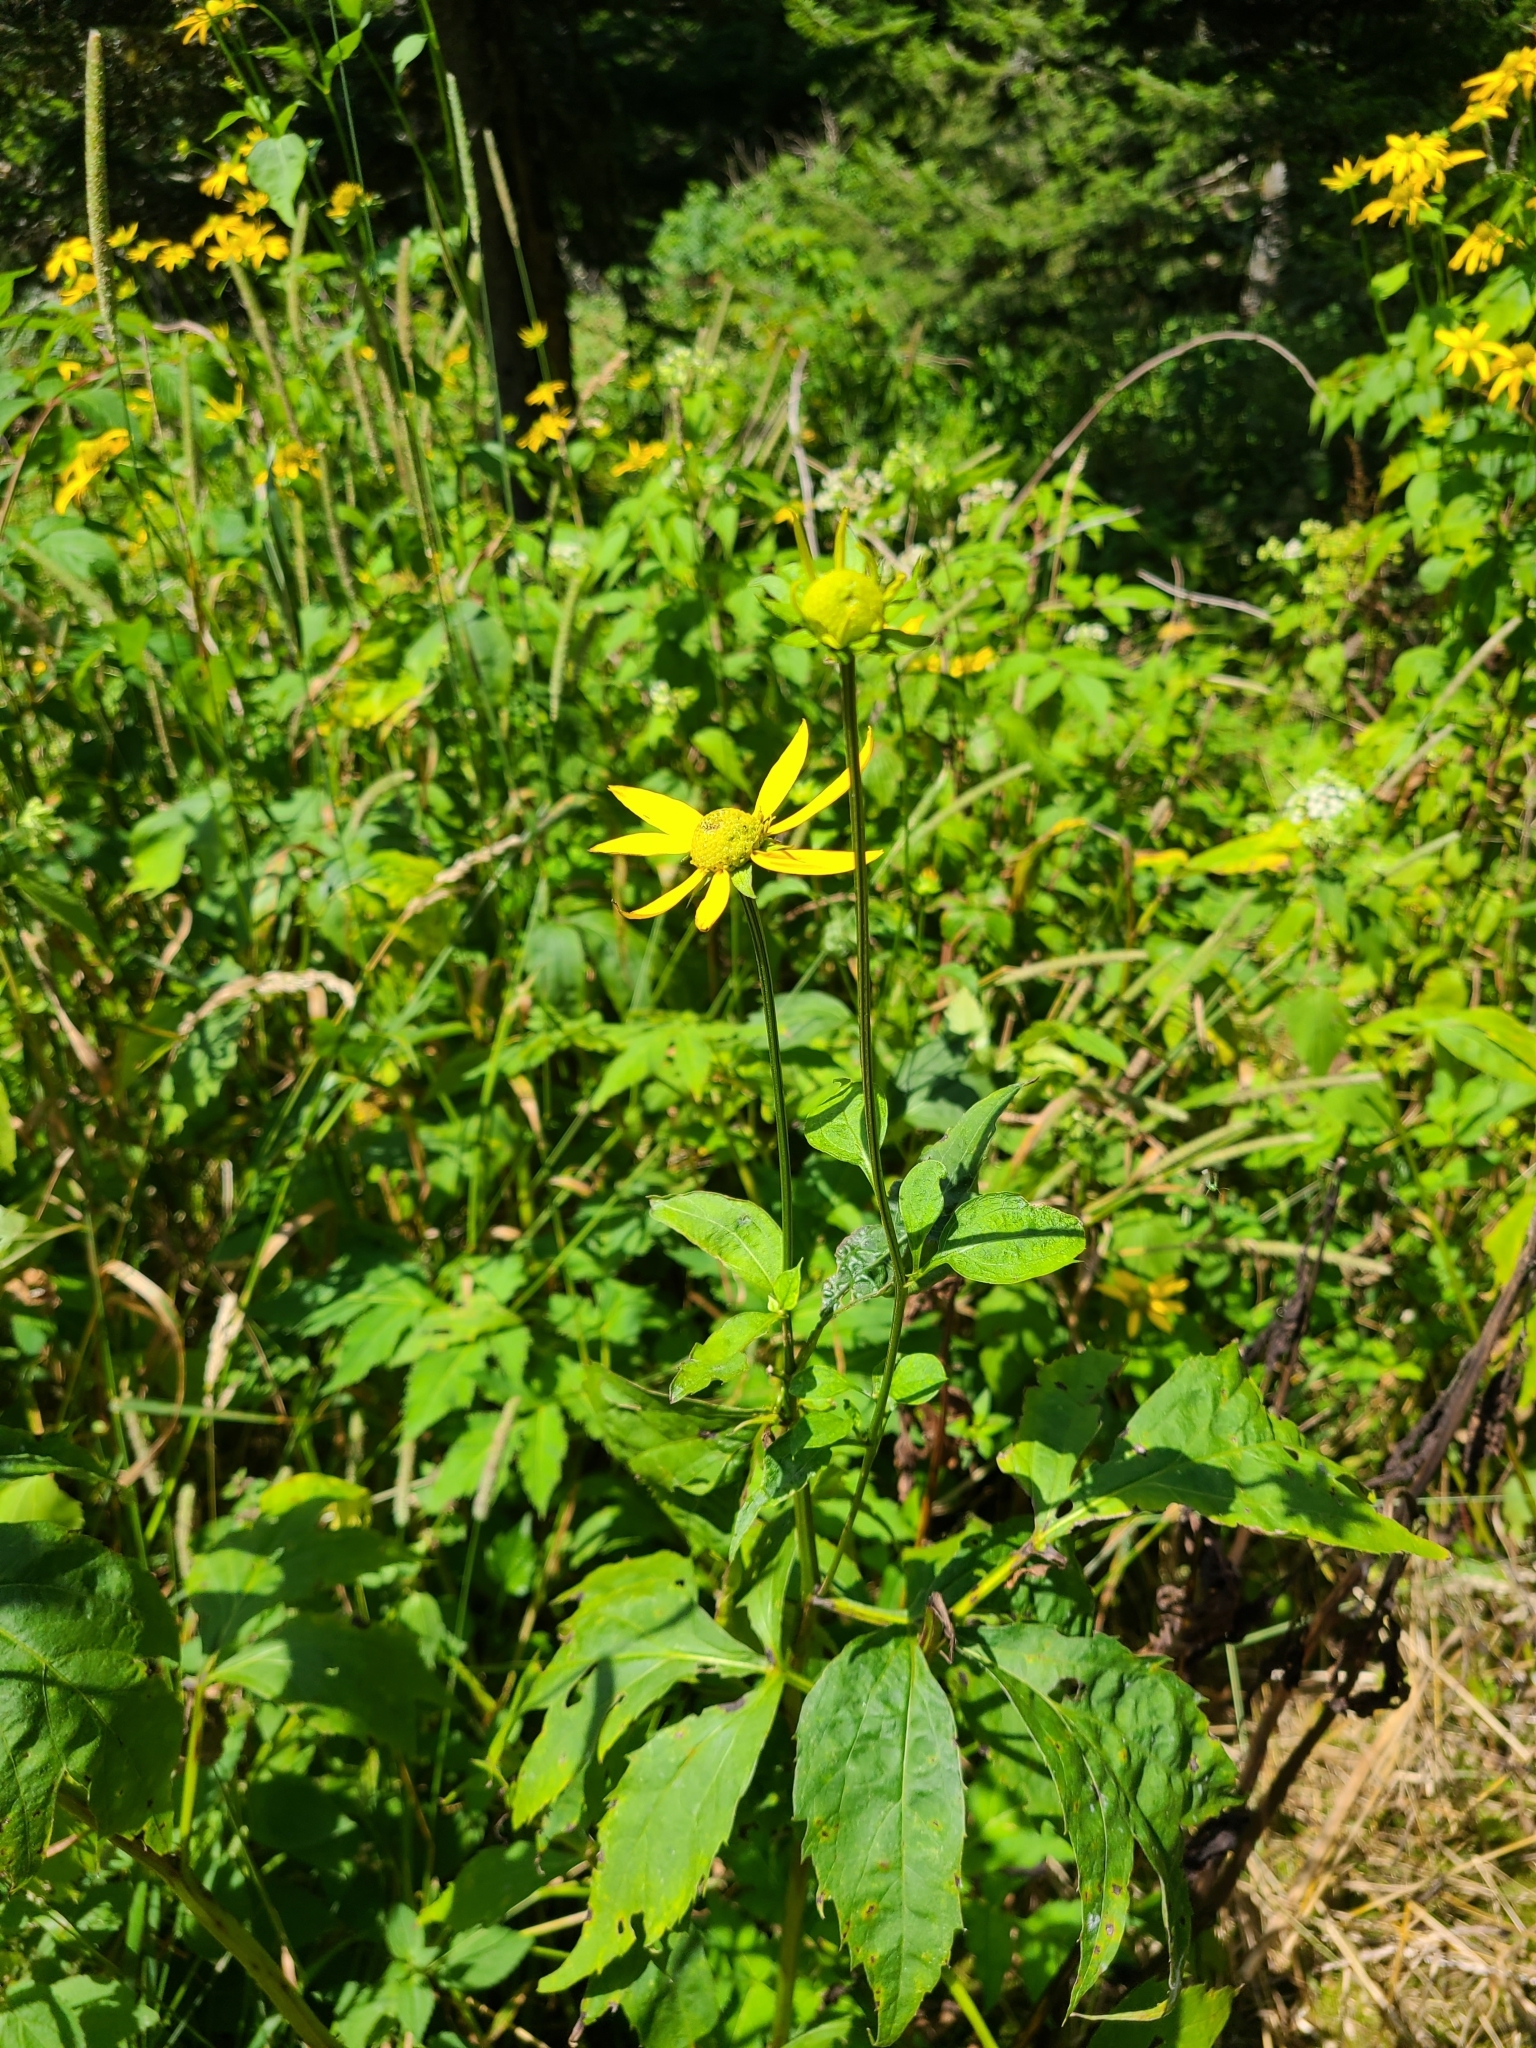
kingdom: Plantae
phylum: Tracheophyta
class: Magnoliopsida
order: Asterales
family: Asteraceae
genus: Rudbeckia
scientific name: Rudbeckia laciniata
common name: Coneflower
